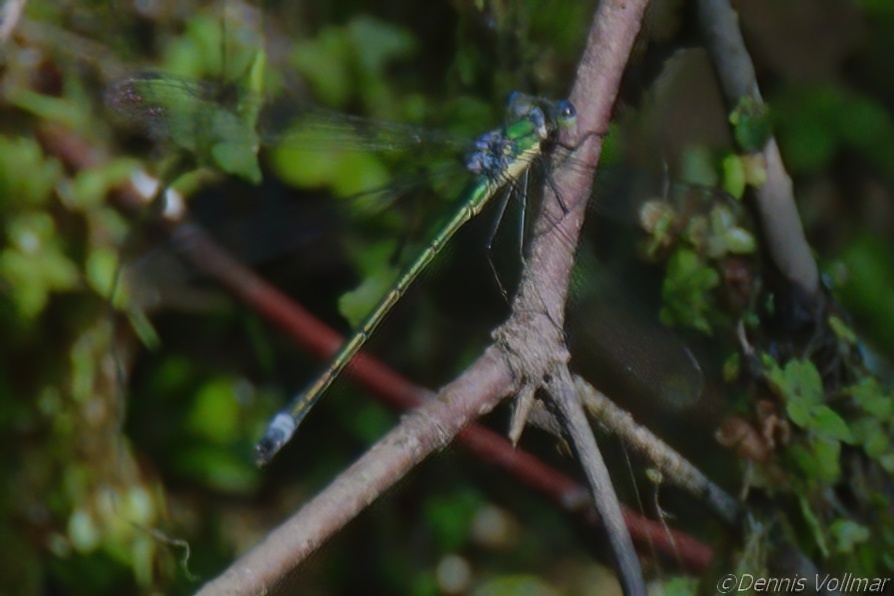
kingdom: Animalia
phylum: Arthropoda
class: Insecta
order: Odonata
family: Lestidae
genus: Lestes
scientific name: Lestes inaequalis
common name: Elegant spreadwing
